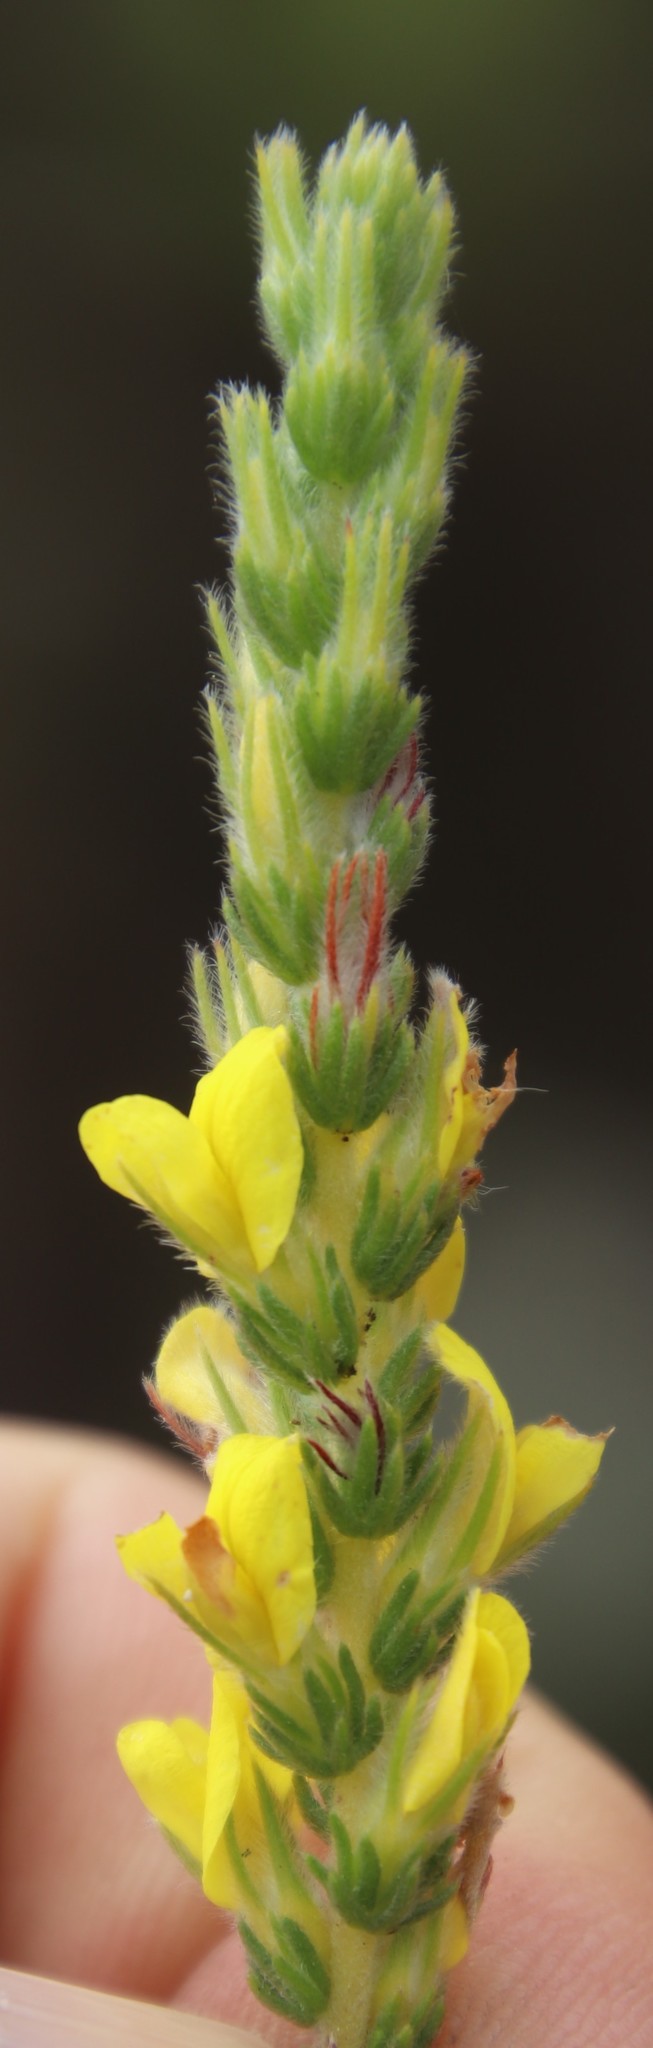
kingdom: Plantae
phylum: Tracheophyta
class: Magnoliopsida
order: Fabales
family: Fabaceae
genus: Aspalathus
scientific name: Aspalathus ericifolia
